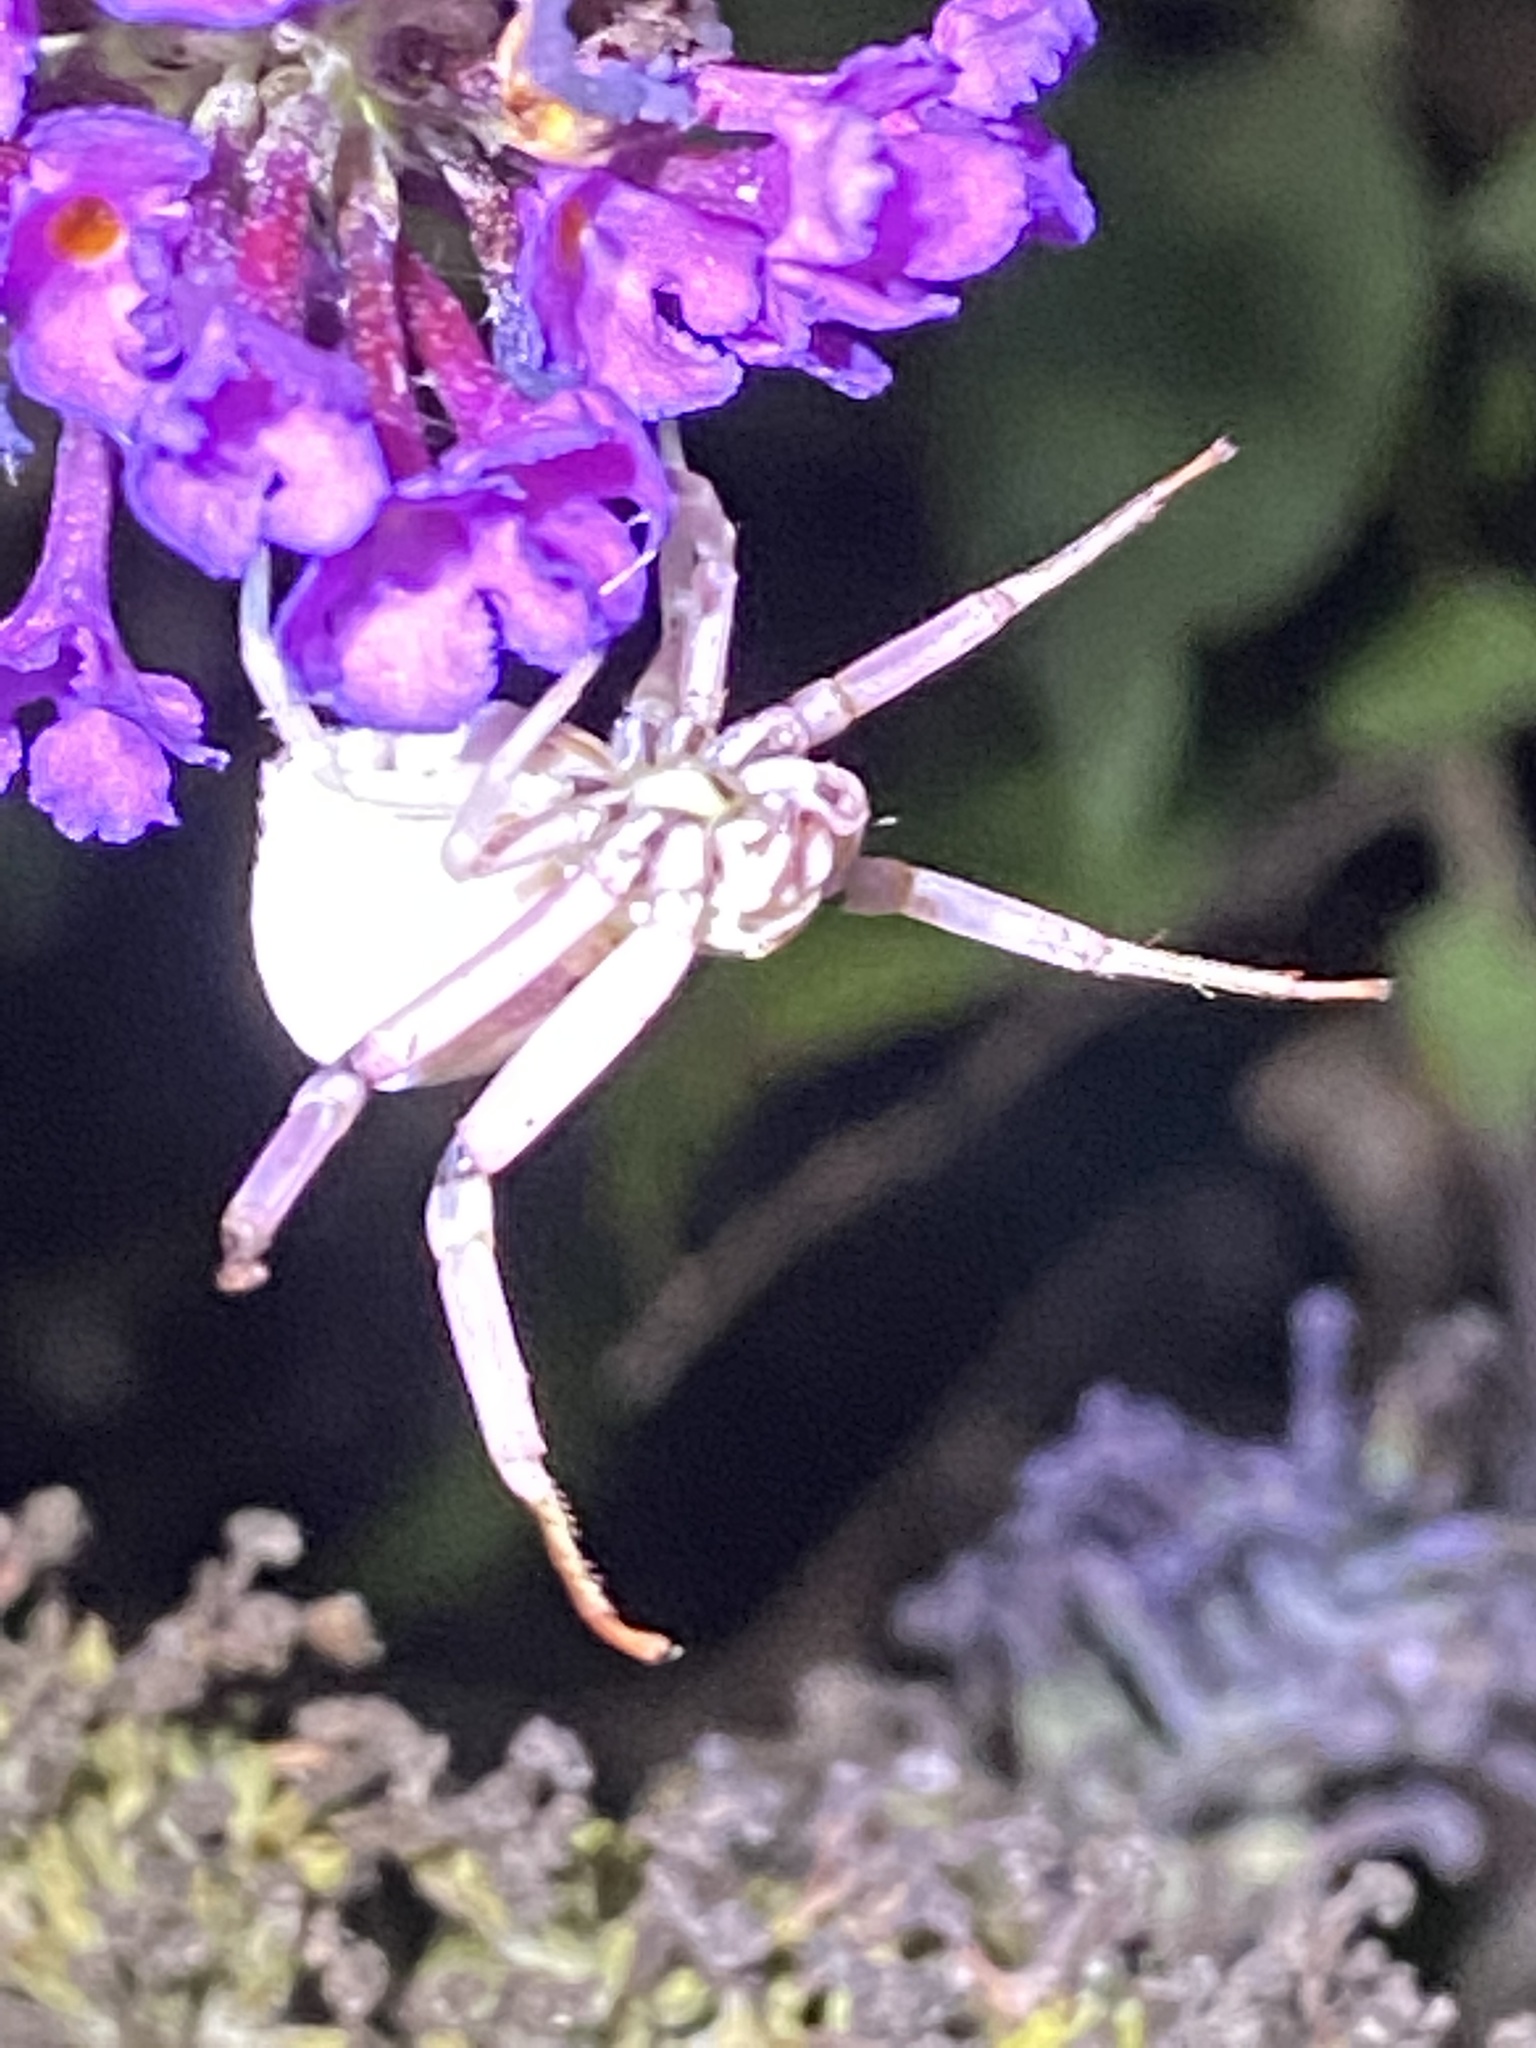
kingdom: Animalia
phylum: Arthropoda
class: Arachnida
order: Araneae
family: Thomisidae
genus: Misumenoides
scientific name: Misumenoides formosipes
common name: White-banded crab spider
